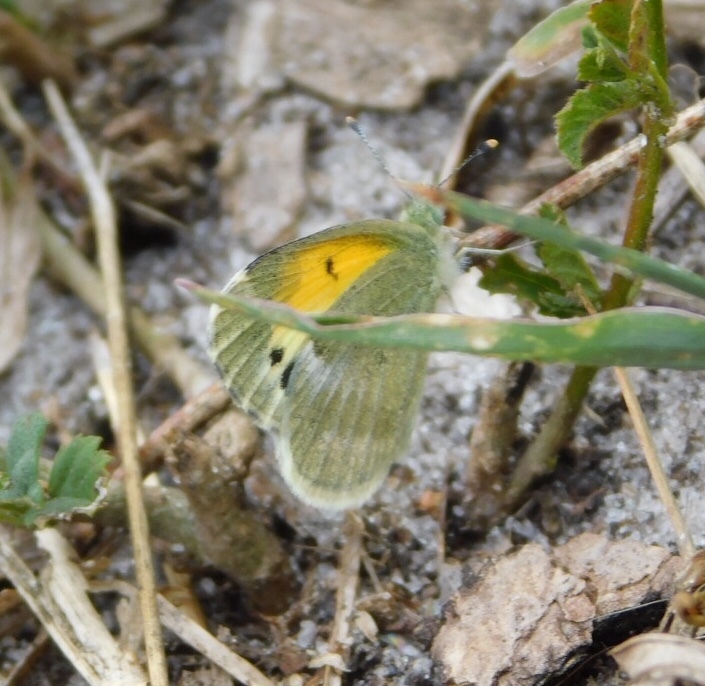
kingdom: Animalia
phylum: Arthropoda
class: Insecta
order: Lepidoptera
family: Pieridae
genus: Nathalis
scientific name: Nathalis iole
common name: Dainty sulphur
